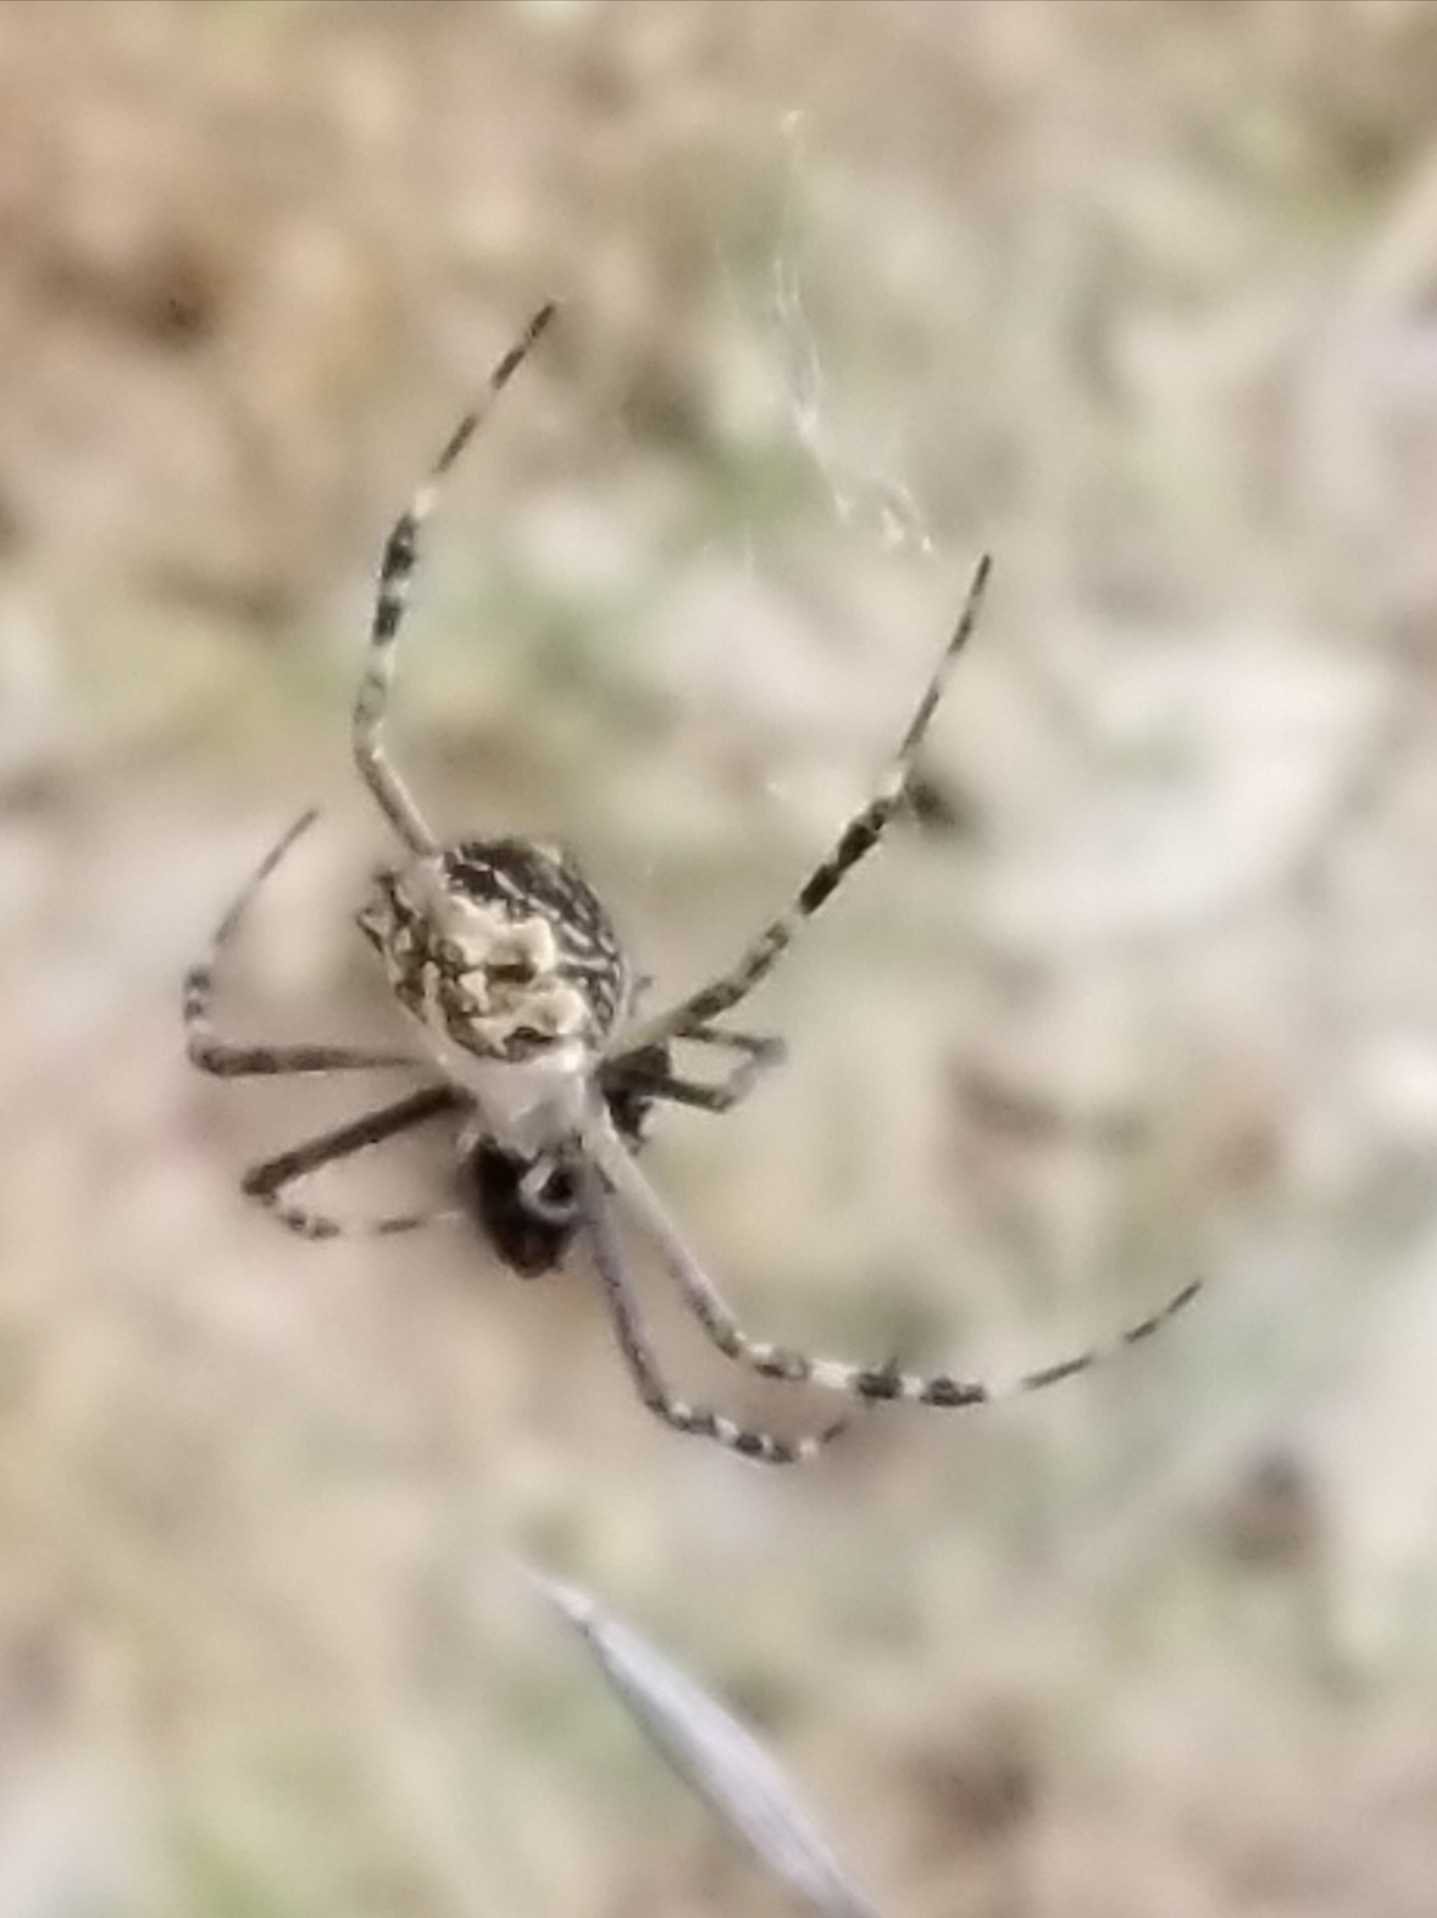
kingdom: Animalia
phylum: Arthropoda
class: Arachnida
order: Araneae
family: Araneidae
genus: Argiope
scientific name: Argiope argentata
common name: Orb weavers
